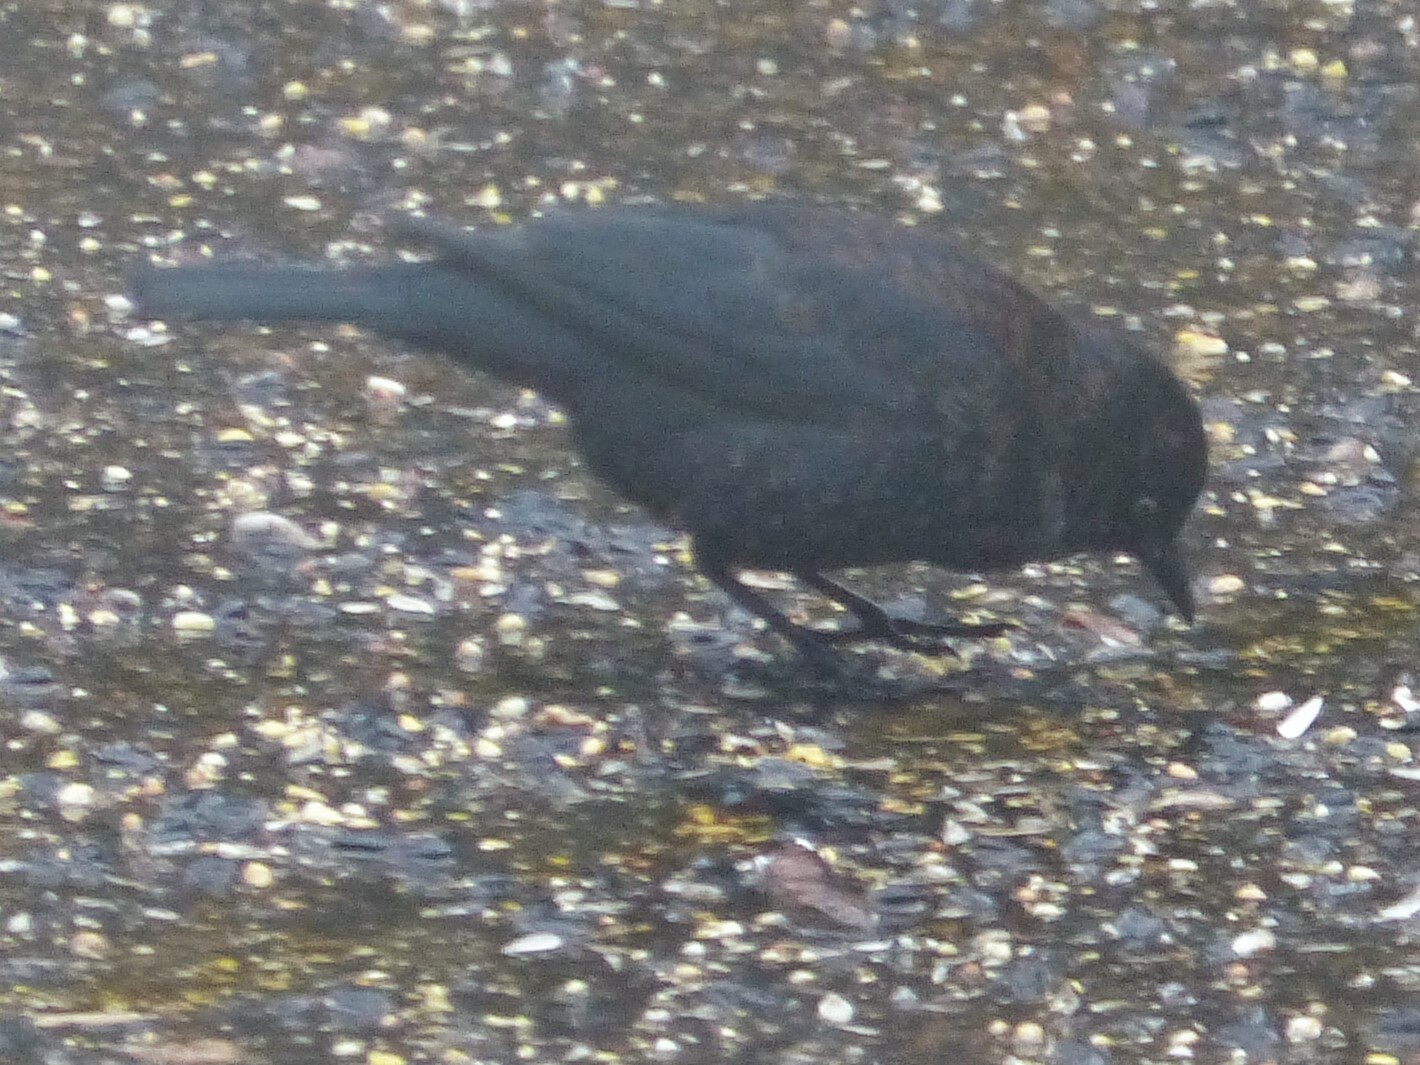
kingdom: Animalia
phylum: Chordata
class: Aves
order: Passeriformes
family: Icteridae
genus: Euphagus
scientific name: Euphagus carolinus
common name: Rusty blackbird
